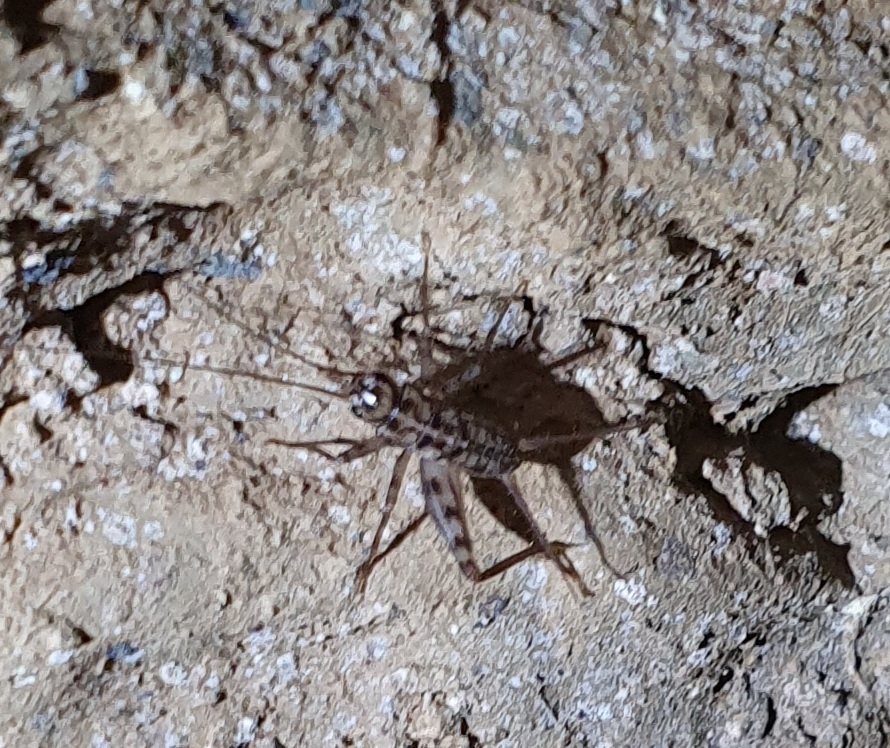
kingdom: Animalia
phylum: Arthropoda
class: Insecta
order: Orthoptera
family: Gryllidae
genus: Gryllomorpha
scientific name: Gryllomorpha dalmatina
